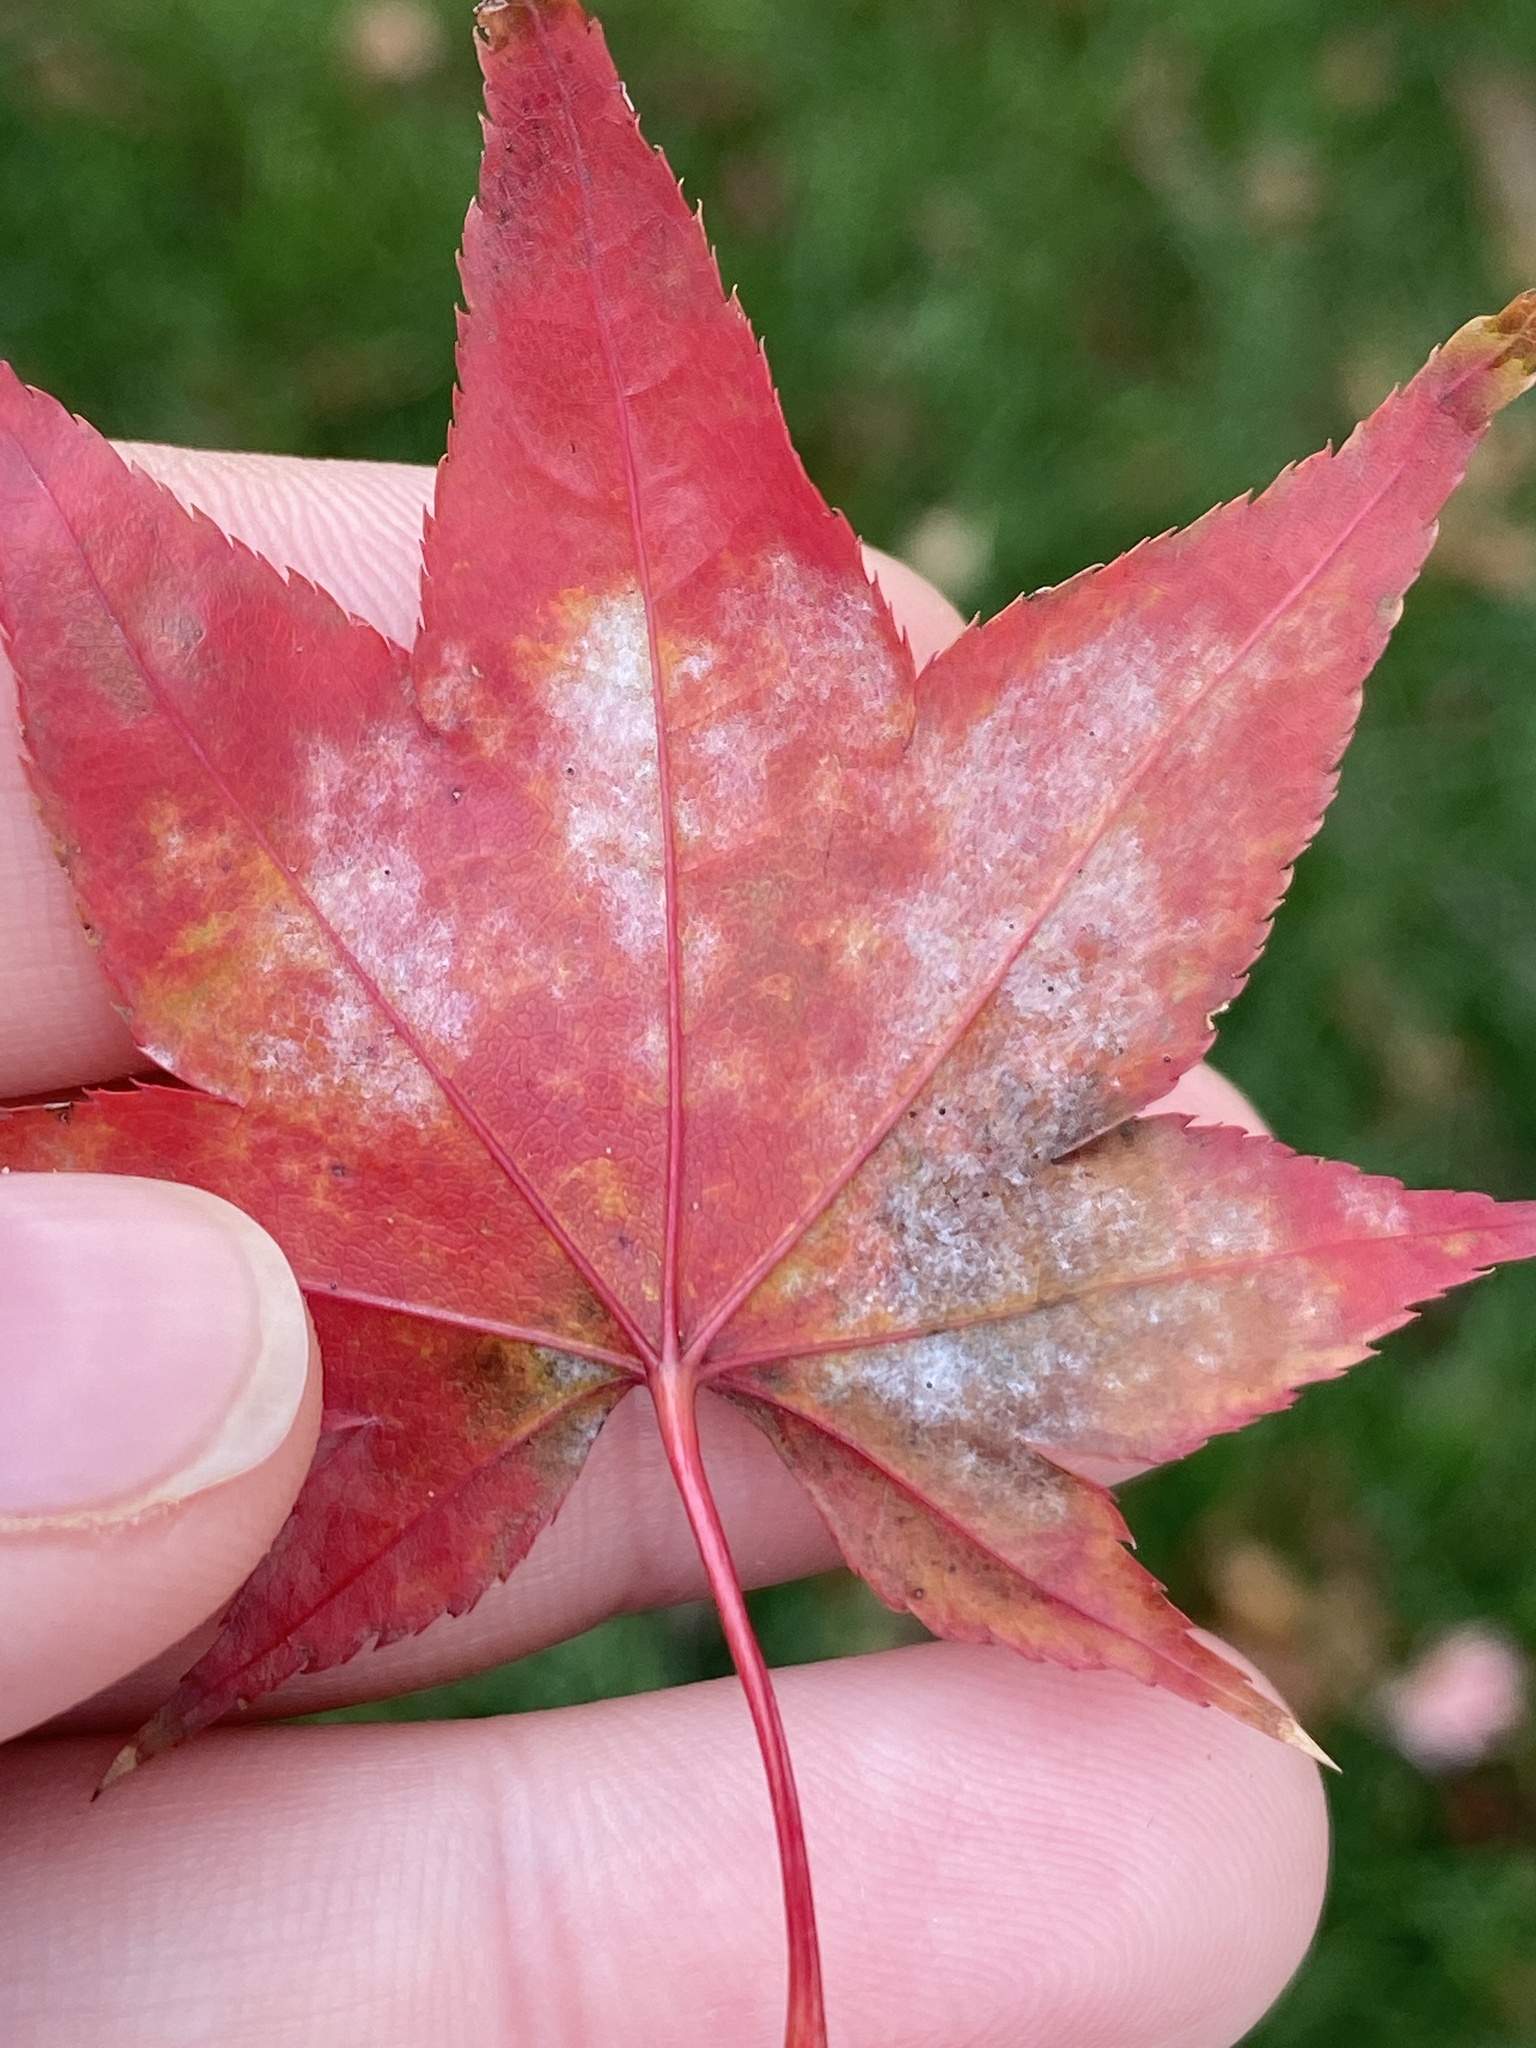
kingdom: Fungi
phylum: Ascomycota
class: Leotiomycetes
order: Helotiales
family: Erysiphaceae
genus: Sawadaea
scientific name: Sawadaea polyfida
